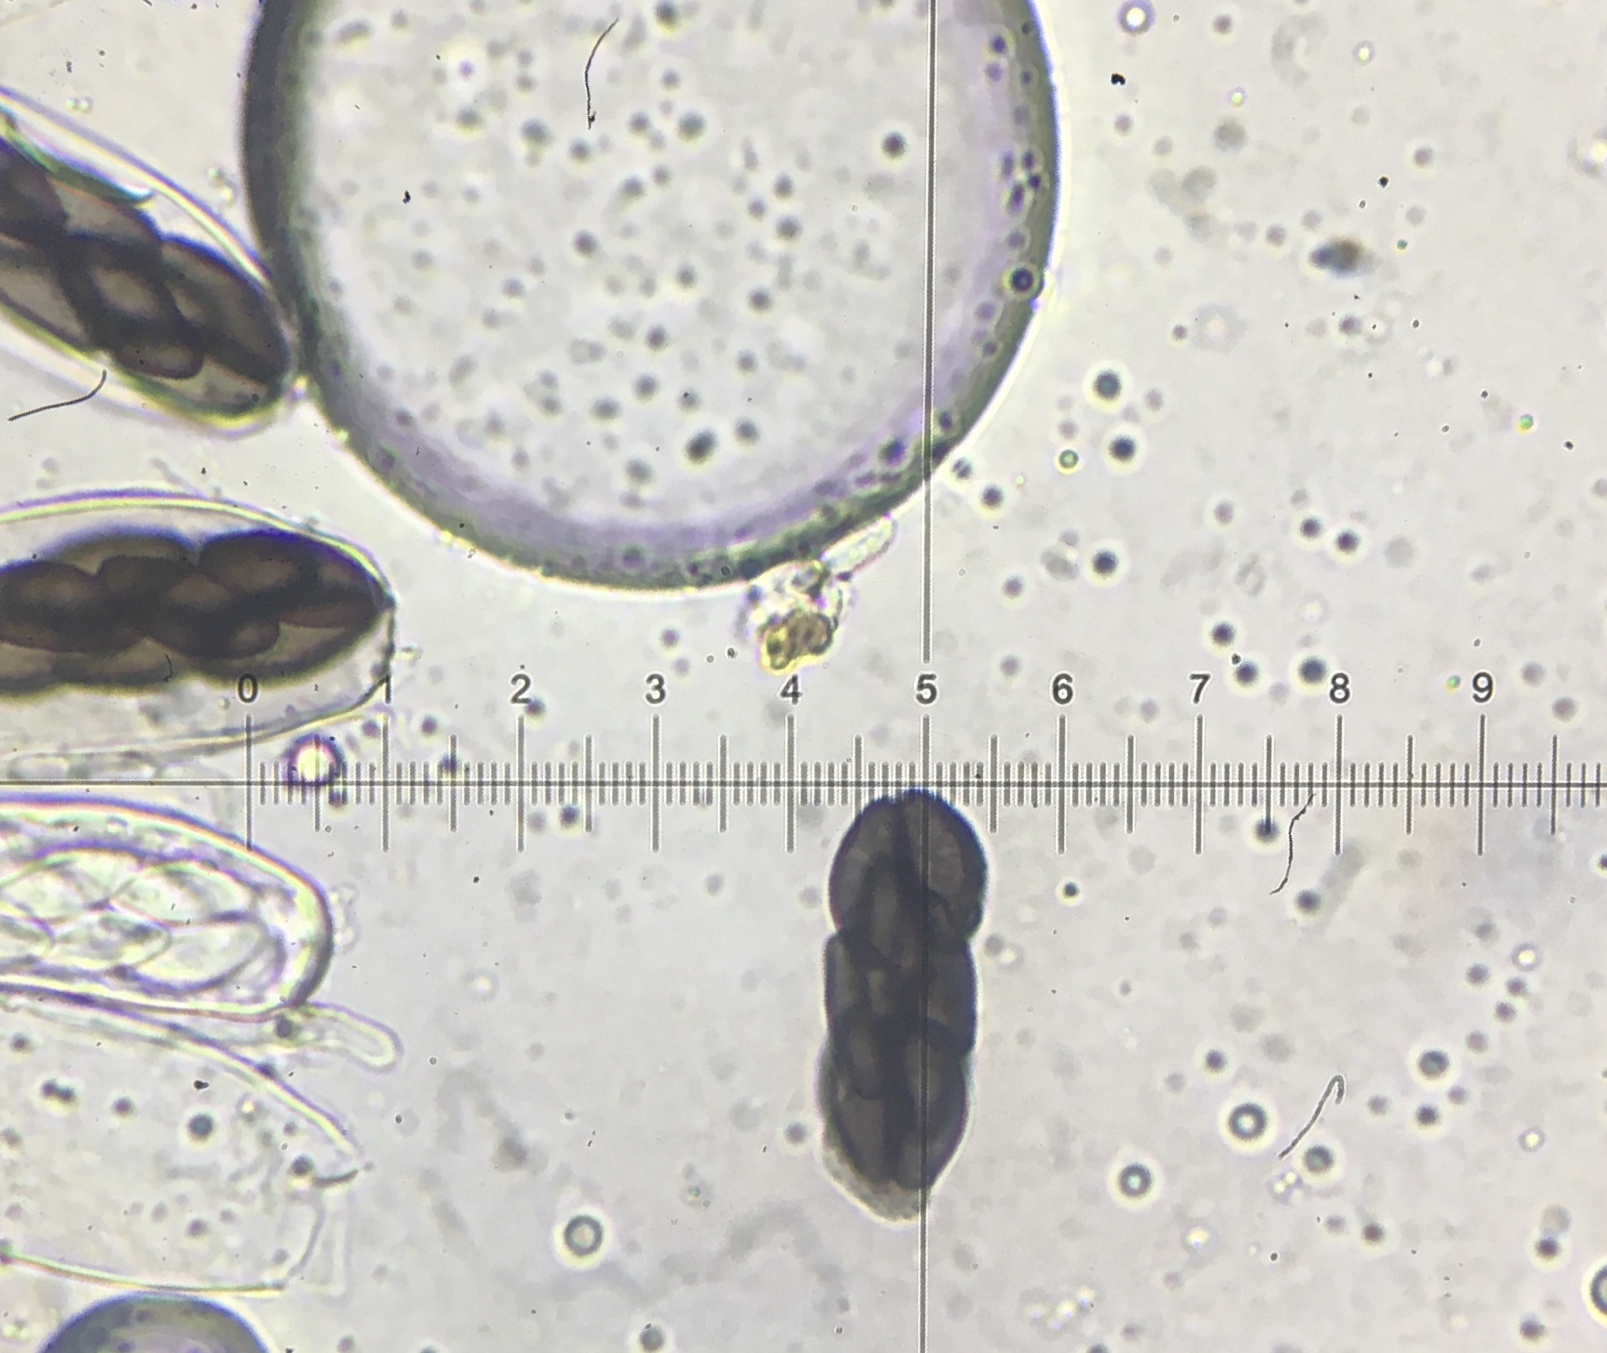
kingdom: Fungi
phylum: Ascomycota
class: Pezizomycetes
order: Pezizales
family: Ascobolaceae
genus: Saccobolus
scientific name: Saccobolus depauperatus
